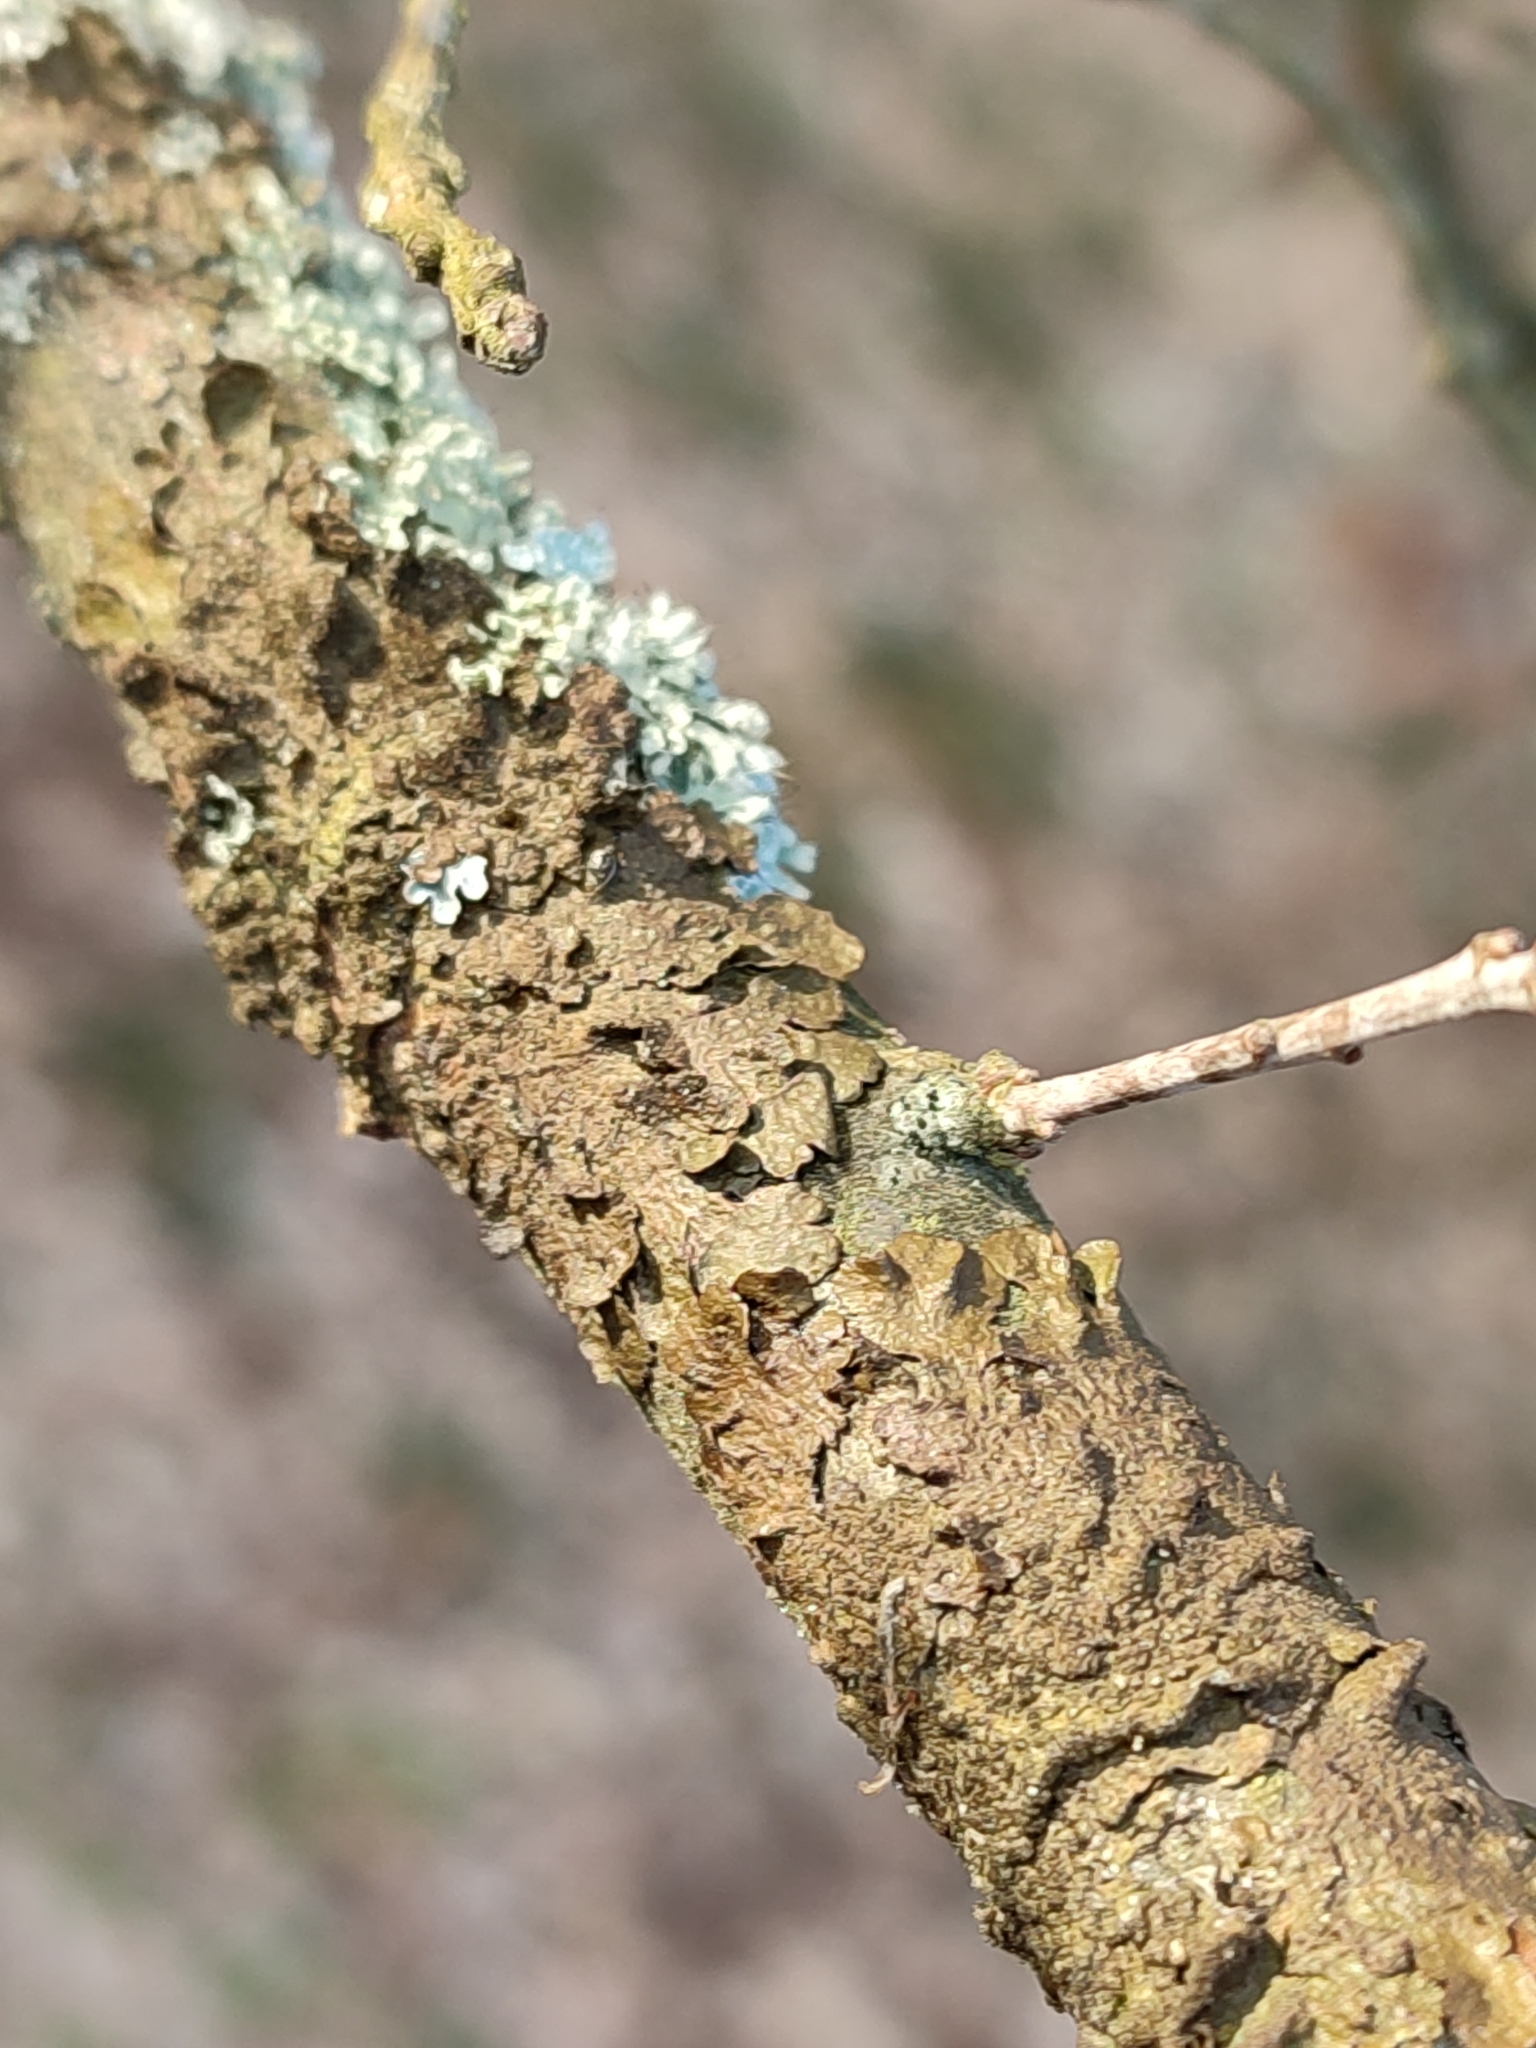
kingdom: Fungi
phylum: Ascomycota
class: Lecanoromycetes
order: Lecanorales
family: Parmeliaceae
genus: Melanelixia
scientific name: Melanelixia glabratula
